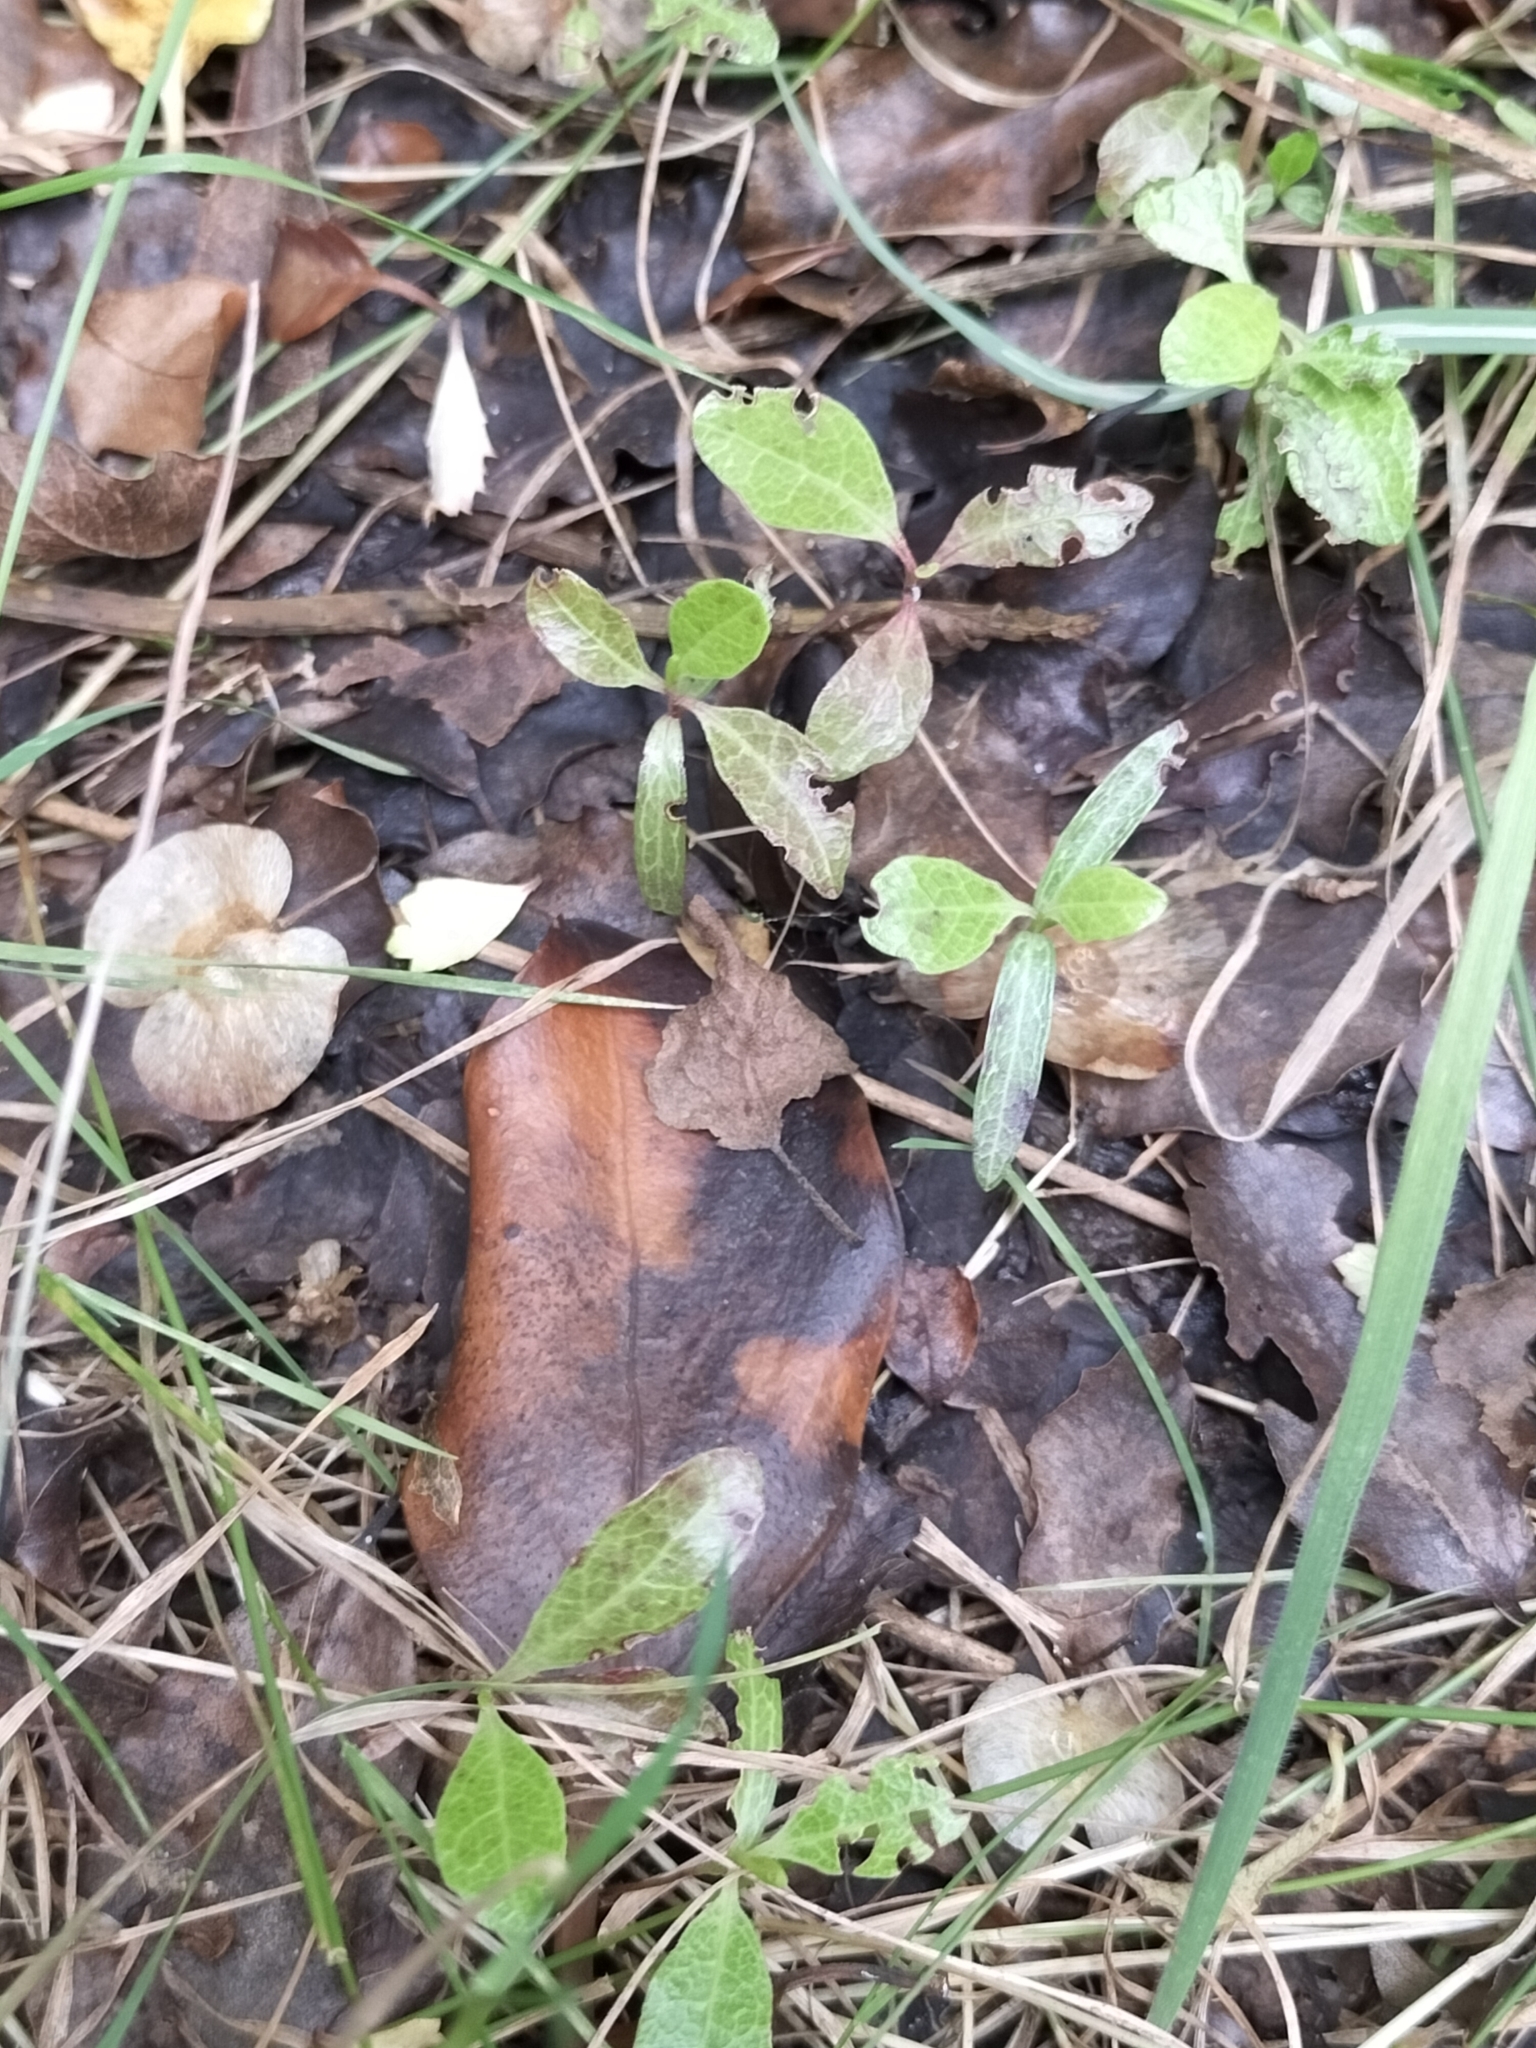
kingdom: Plantae
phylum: Tracheophyta
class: Magnoliopsida
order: Sapindales
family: Sapindaceae
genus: Dodonaea
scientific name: Dodonaea viscosa
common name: Hopbush
